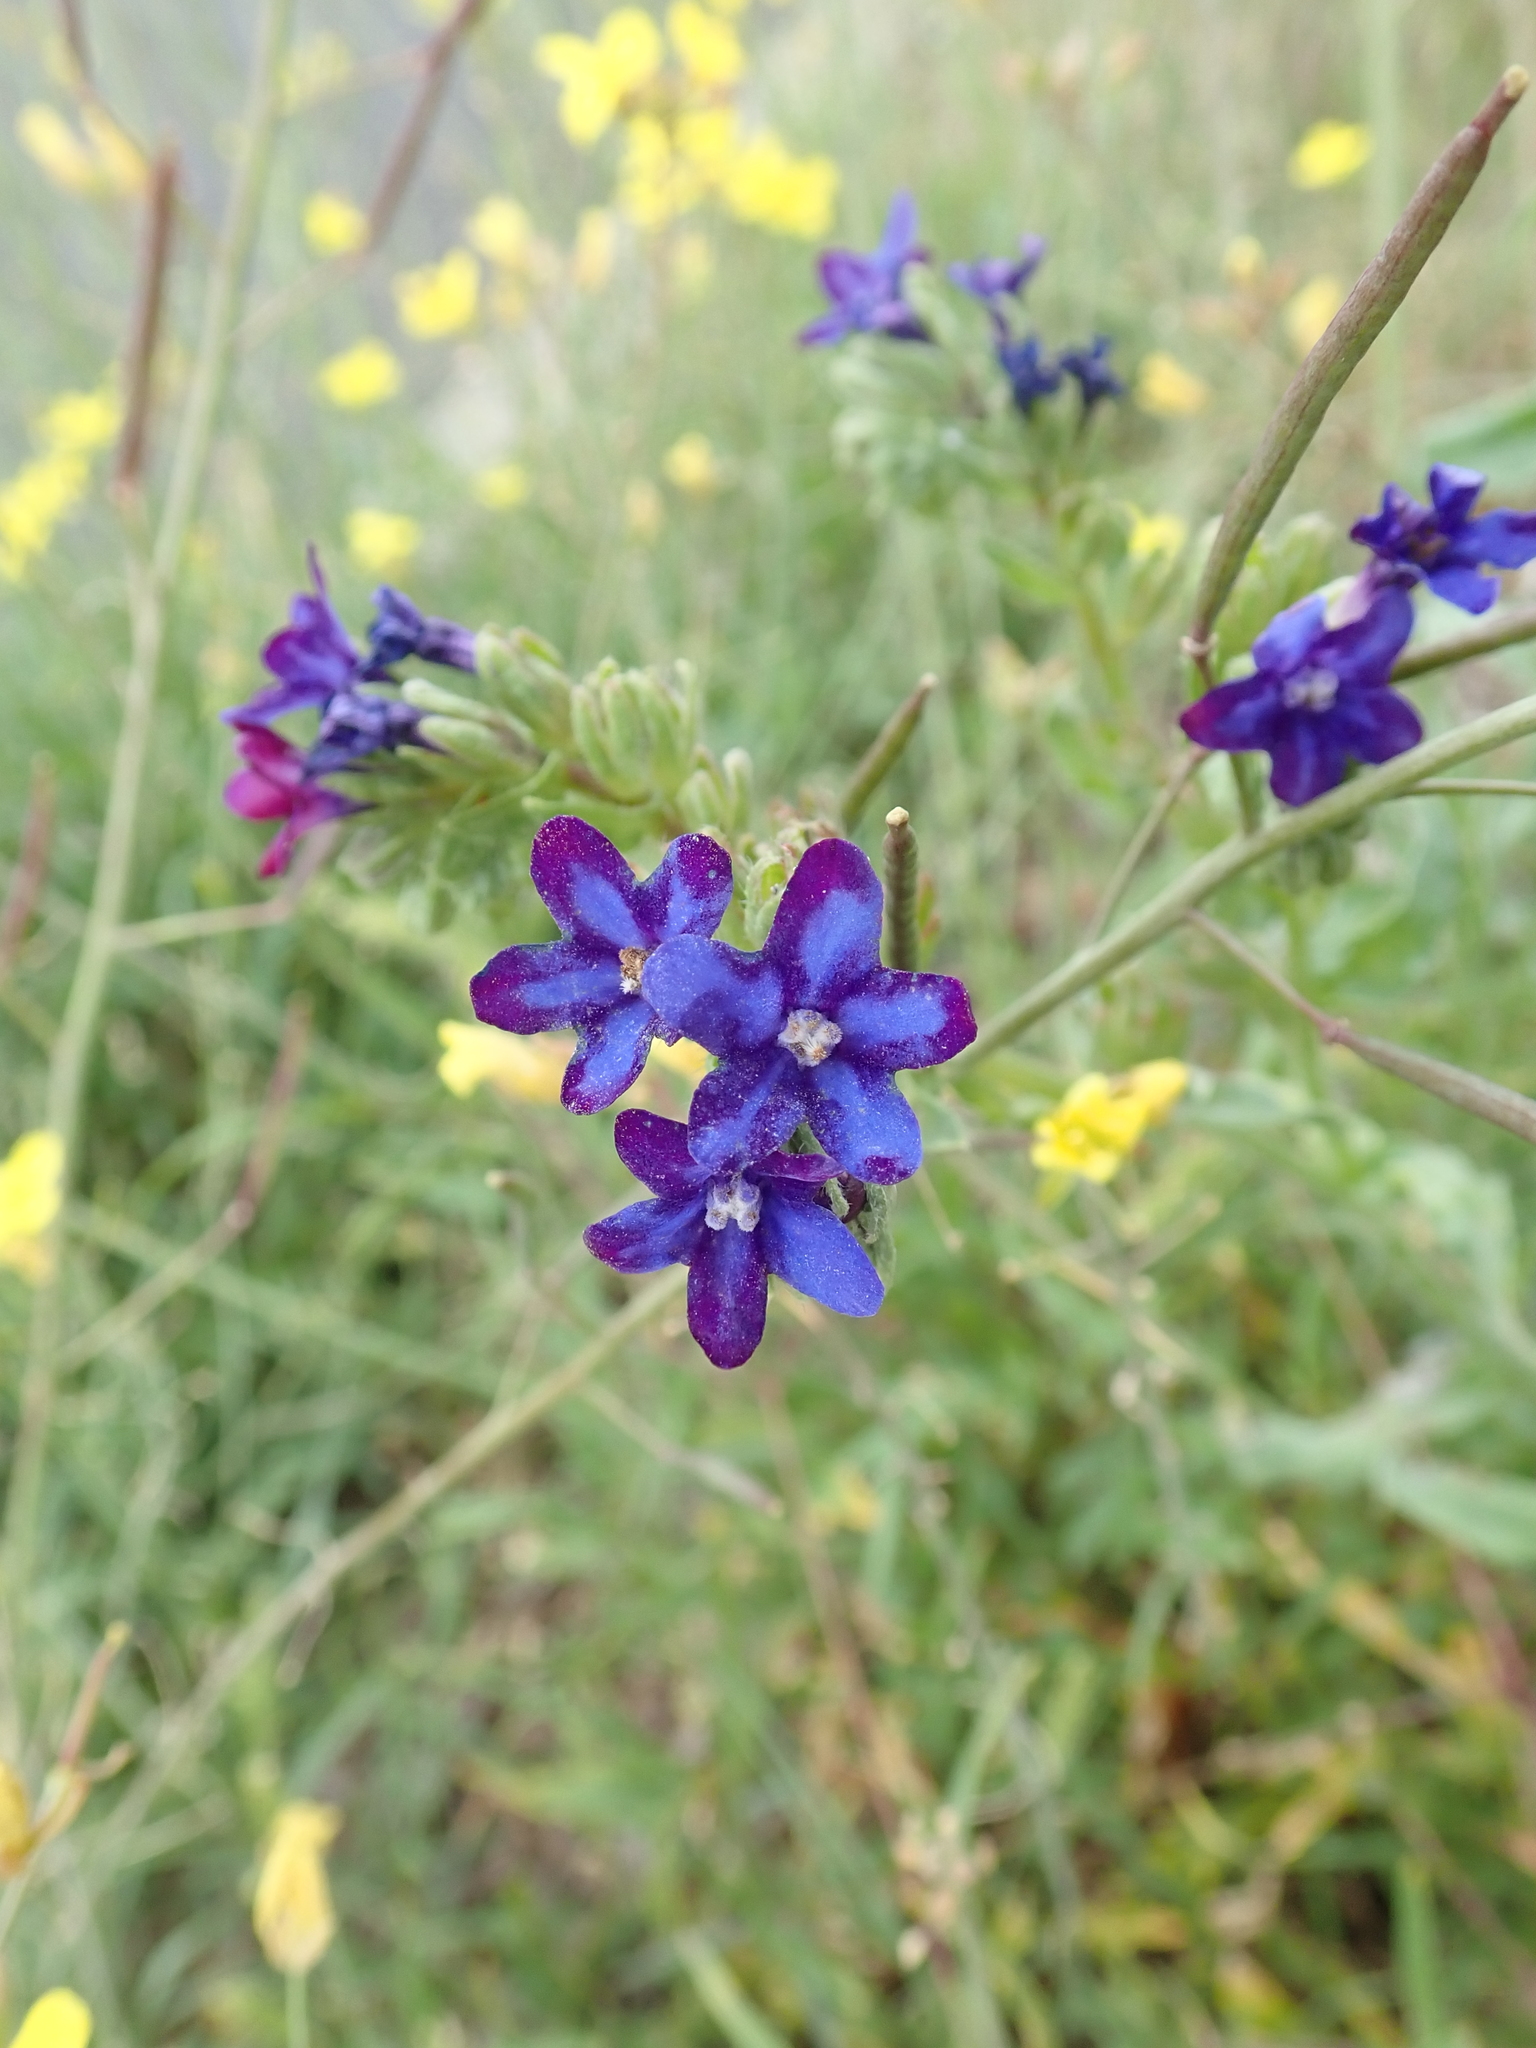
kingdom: Plantae
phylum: Tracheophyta
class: Magnoliopsida
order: Boraginales
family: Boraginaceae
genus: Anchusa
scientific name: Anchusa officinalis
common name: Alkanet
